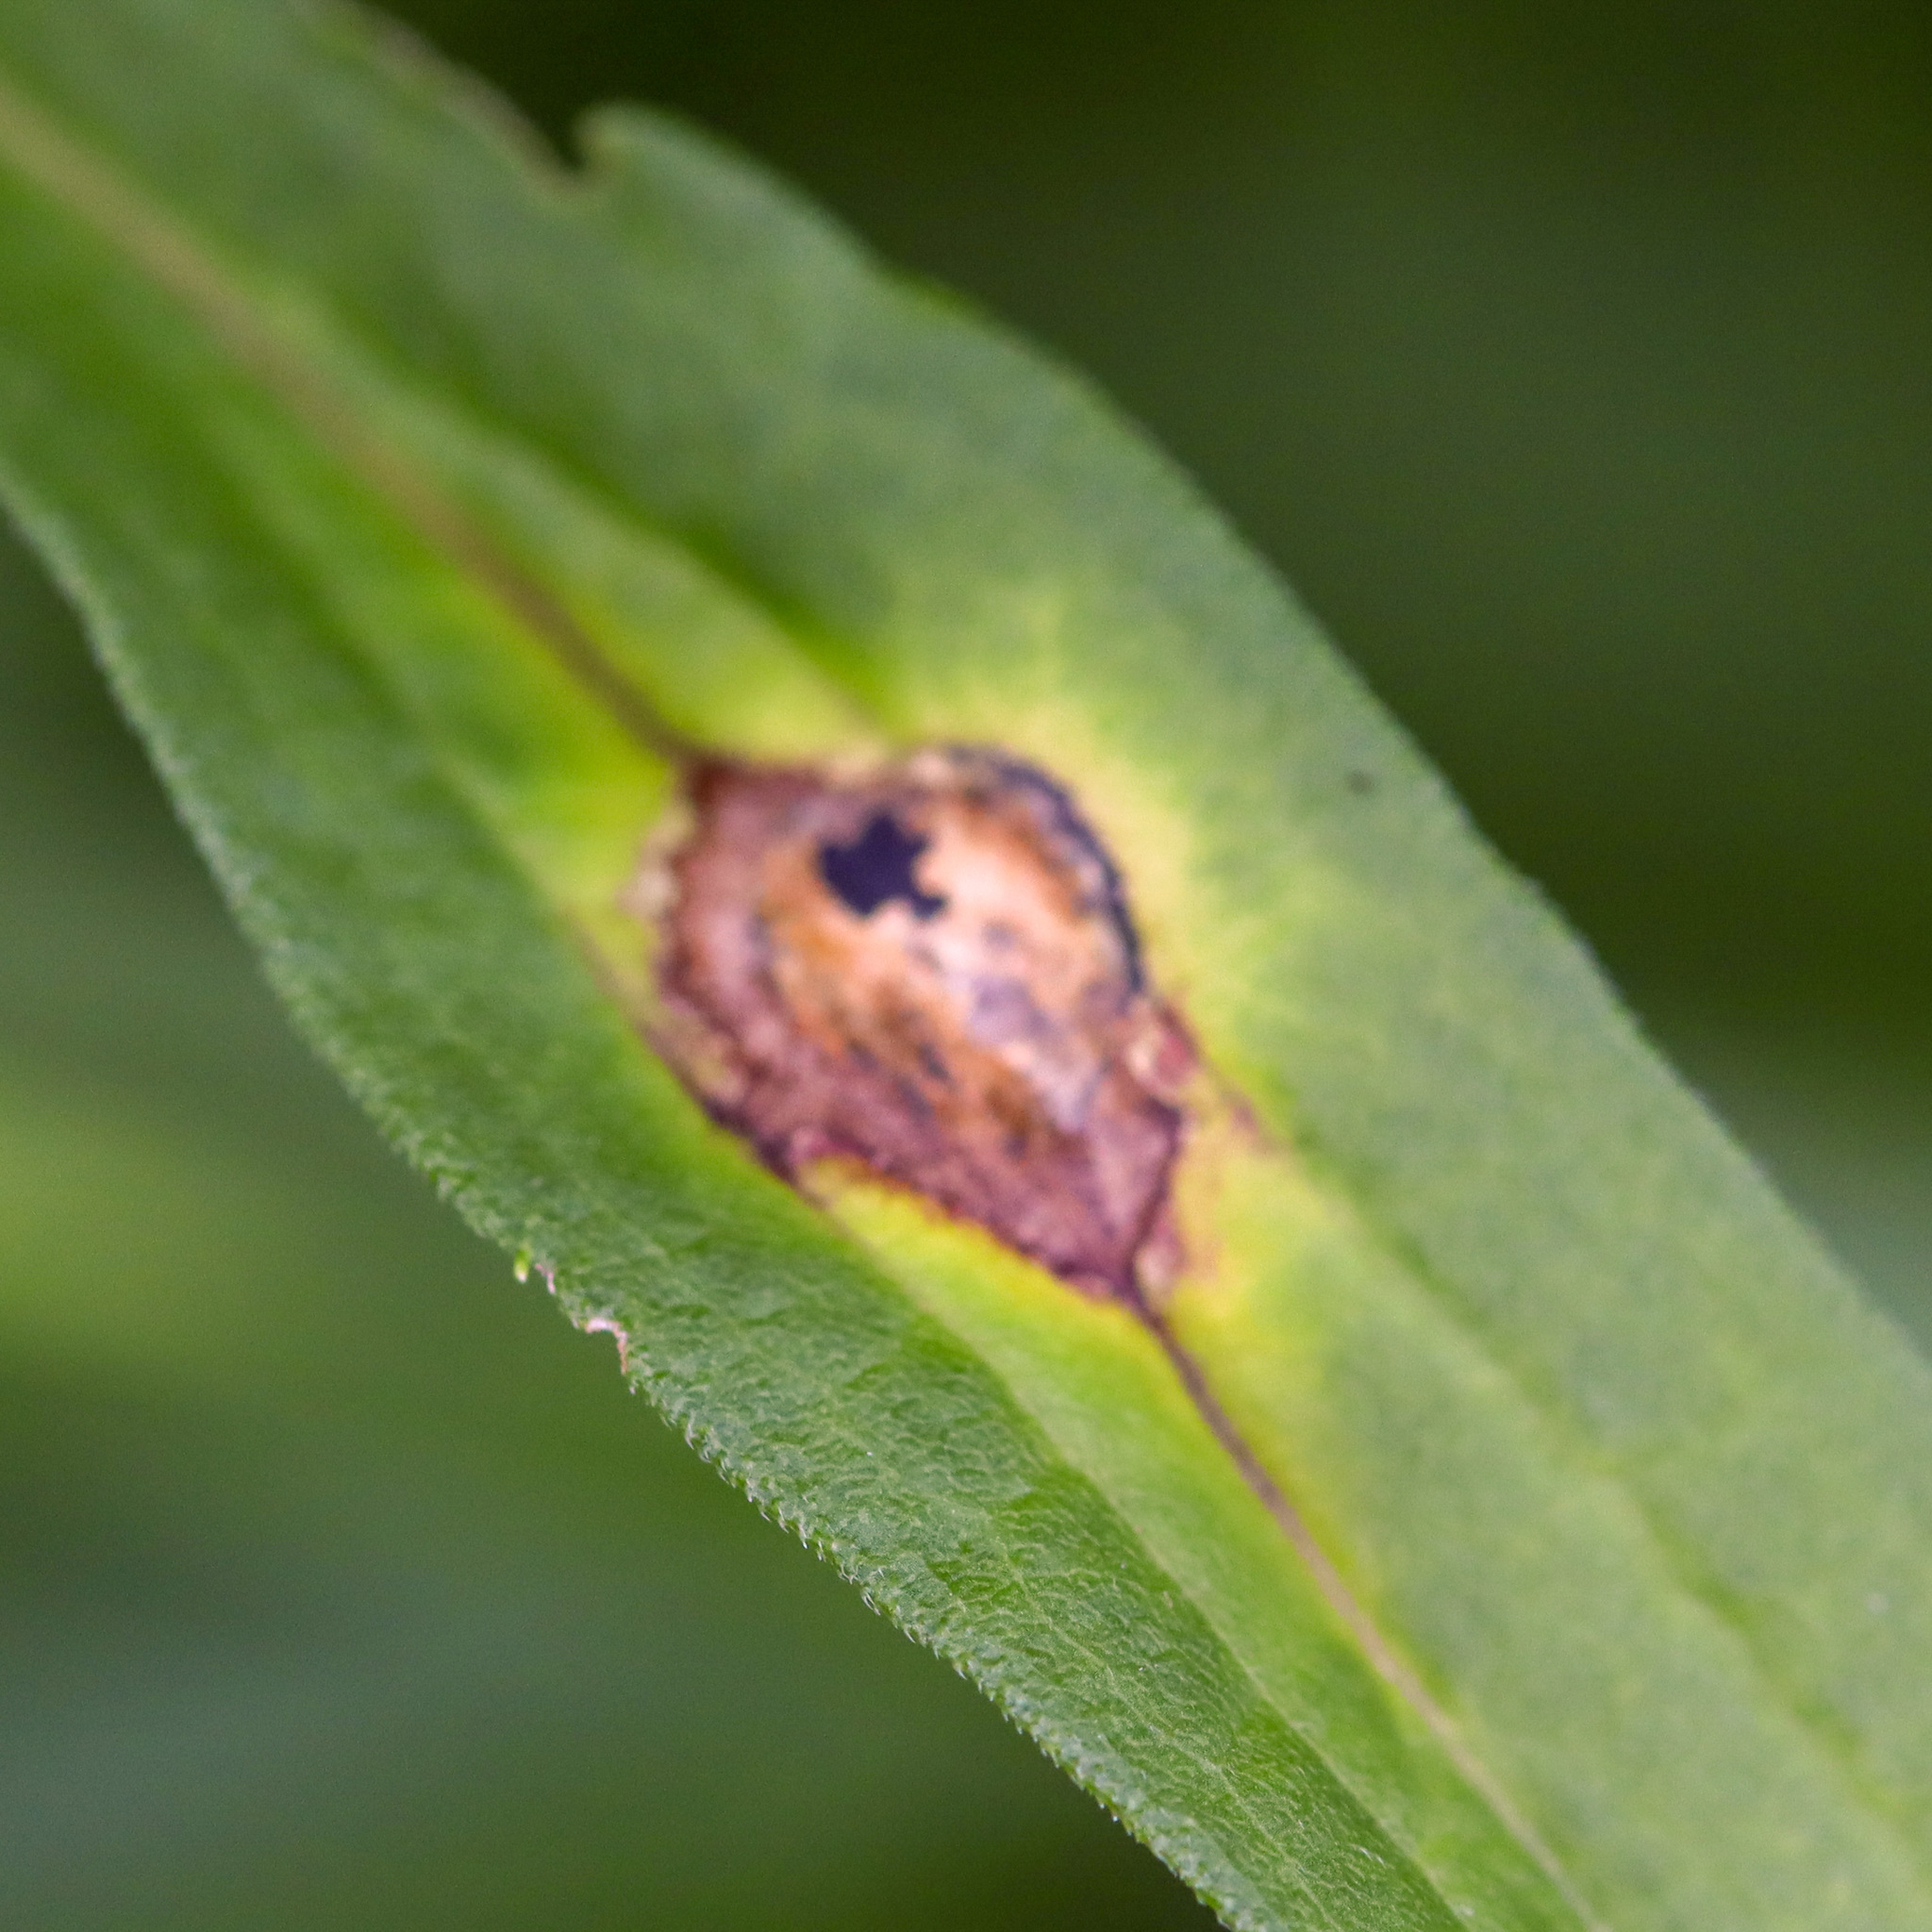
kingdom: Animalia
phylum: Arthropoda
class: Insecta
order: Diptera
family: Cecidomyiidae
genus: Asteromyia
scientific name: Asteromyia carbonifera
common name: Carbonifera goldenrod gall midge
